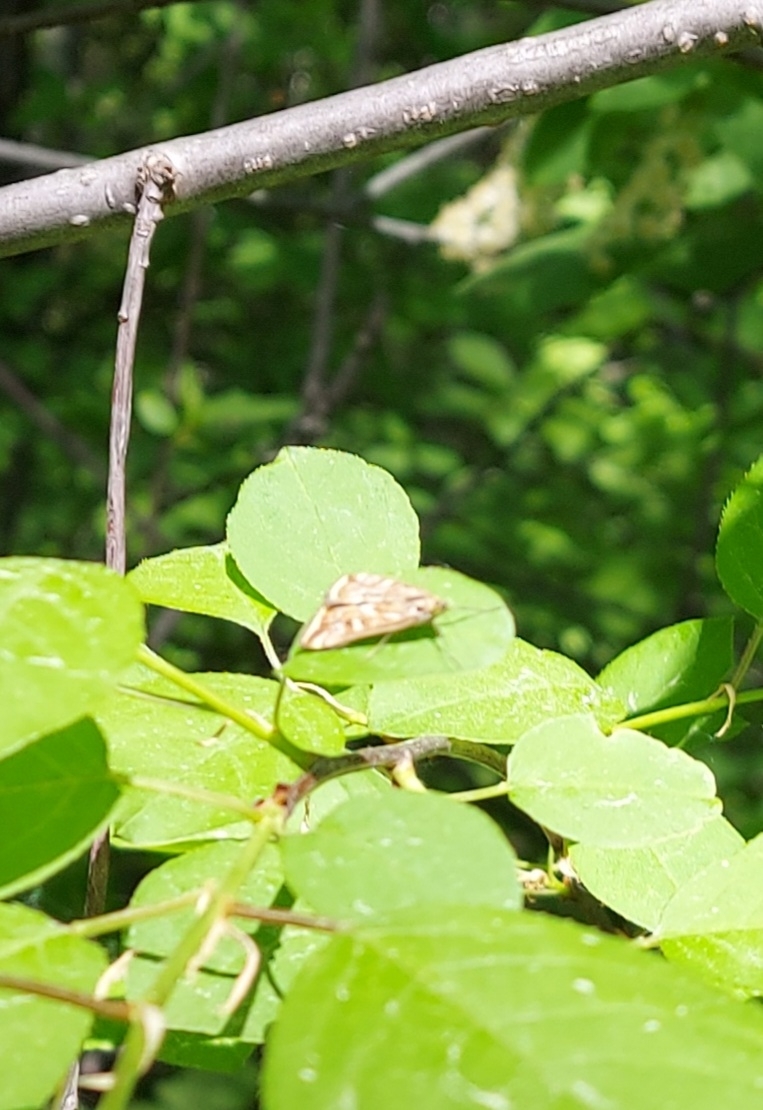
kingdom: Animalia
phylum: Arthropoda
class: Insecta
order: Lepidoptera
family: Crambidae
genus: Loxostege
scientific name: Loxostege sticticalis
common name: Crambid moth
